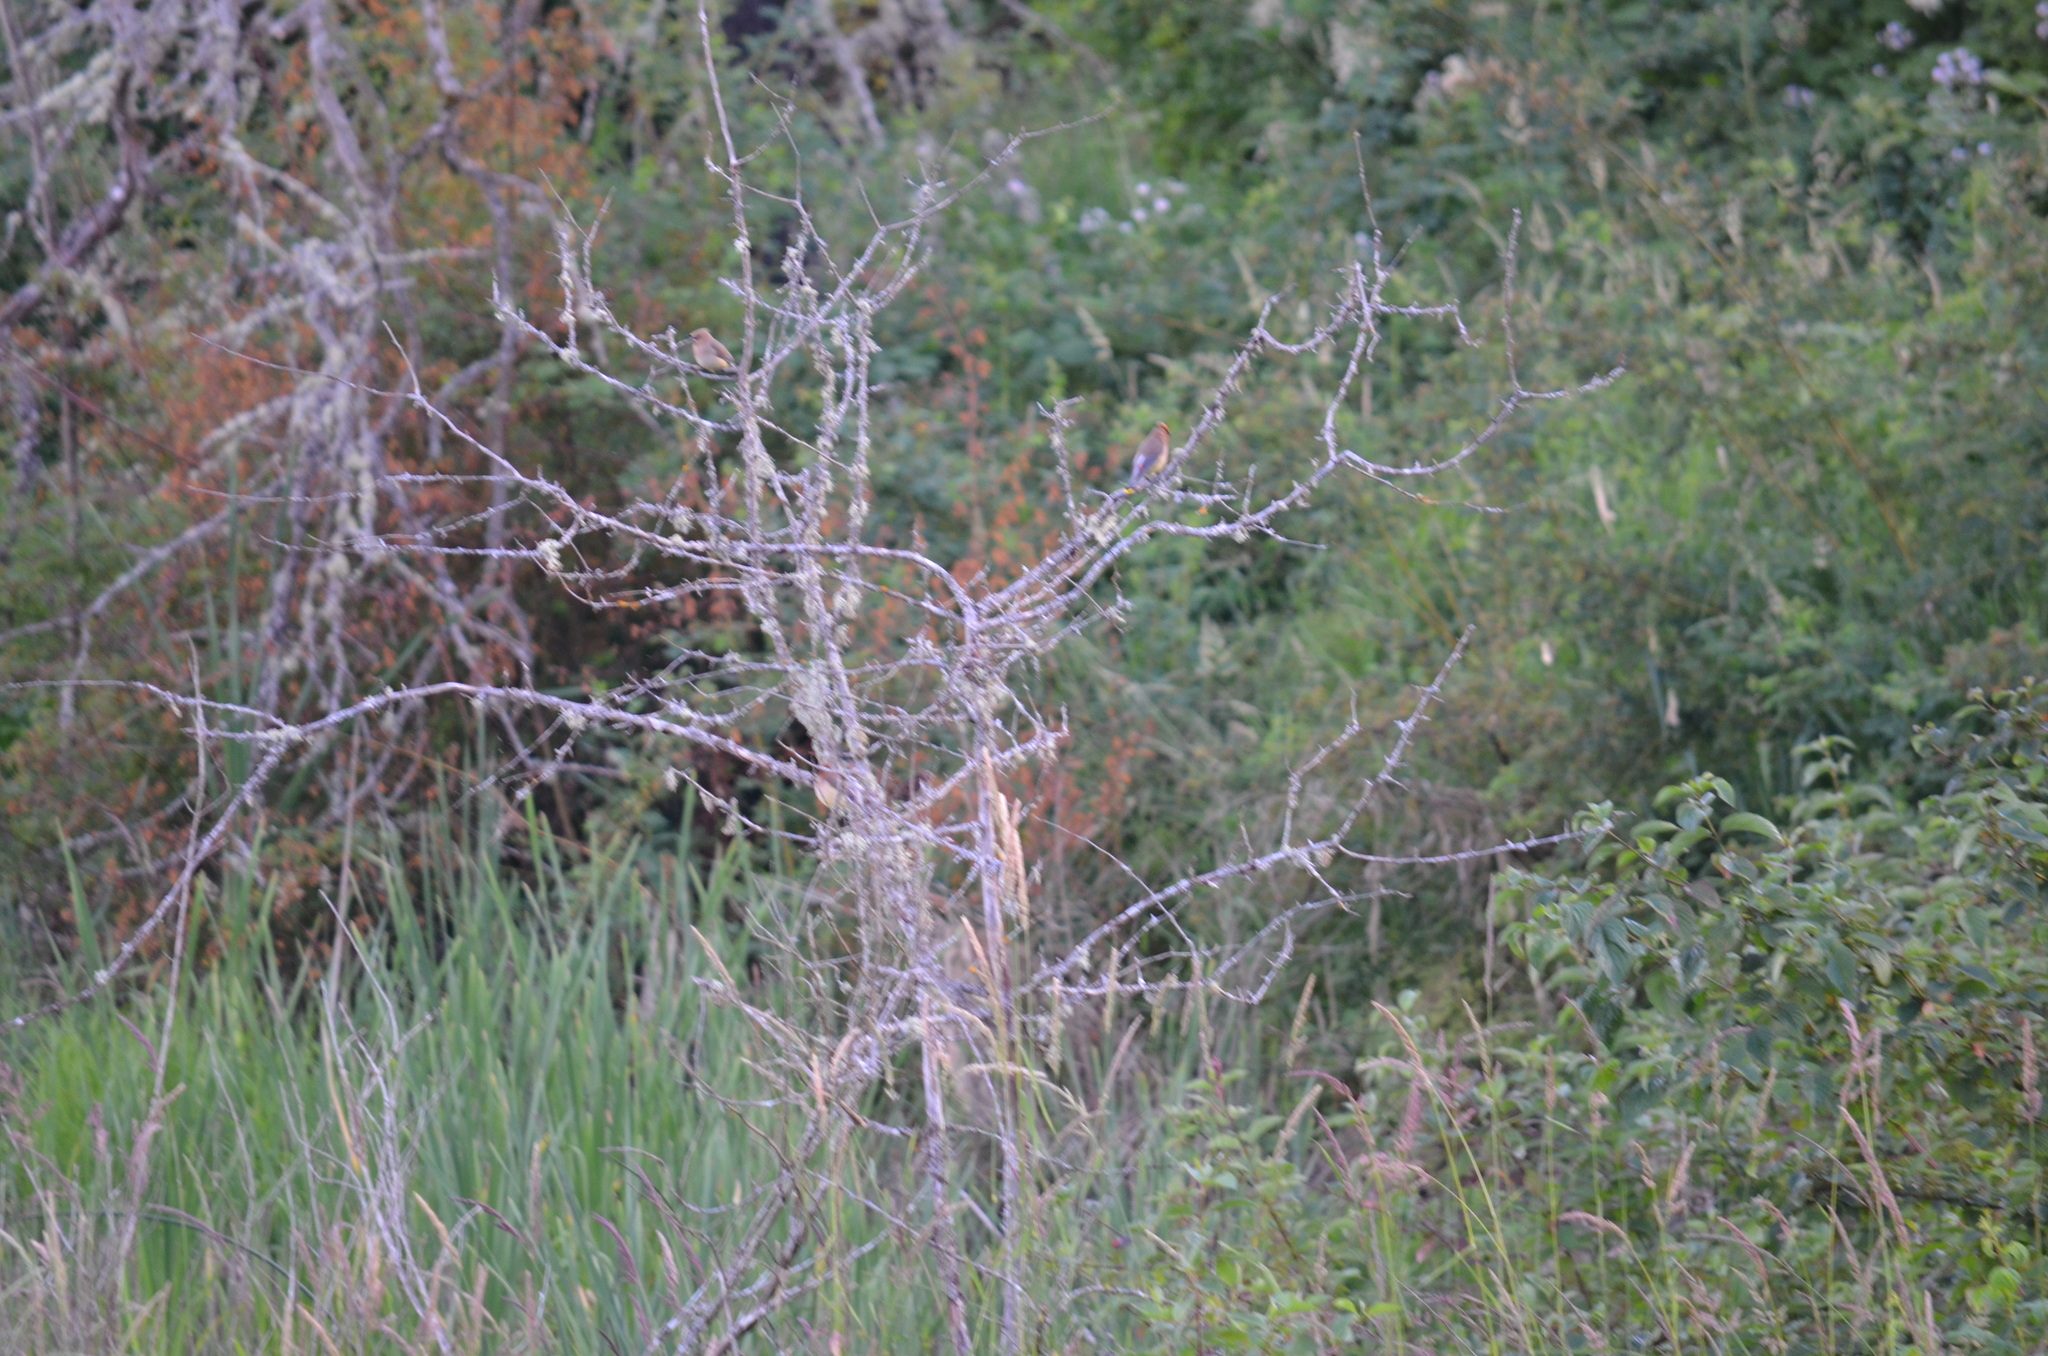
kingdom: Animalia
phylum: Chordata
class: Aves
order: Passeriformes
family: Bombycillidae
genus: Bombycilla
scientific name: Bombycilla cedrorum
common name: Cedar waxwing
